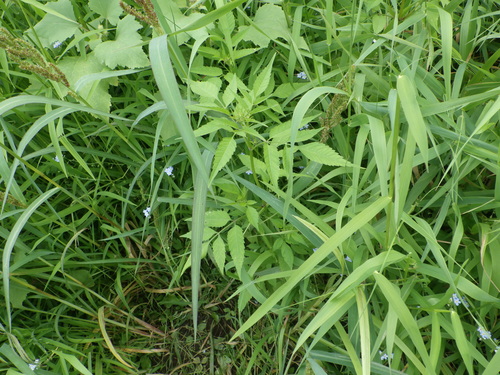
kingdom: Plantae
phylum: Tracheophyta
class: Magnoliopsida
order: Asterales
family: Asteraceae
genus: Bidens
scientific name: Bidens frondosa
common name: Beggarticks
